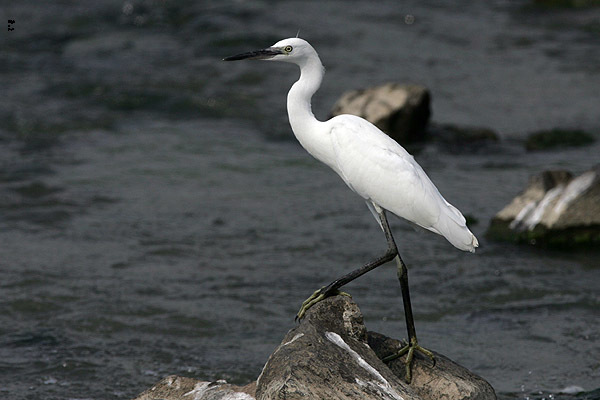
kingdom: Animalia
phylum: Chordata
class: Aves
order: Pelecaniformes
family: Ardeidae
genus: Egretta
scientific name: Egretta garzetta
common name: Little egret
